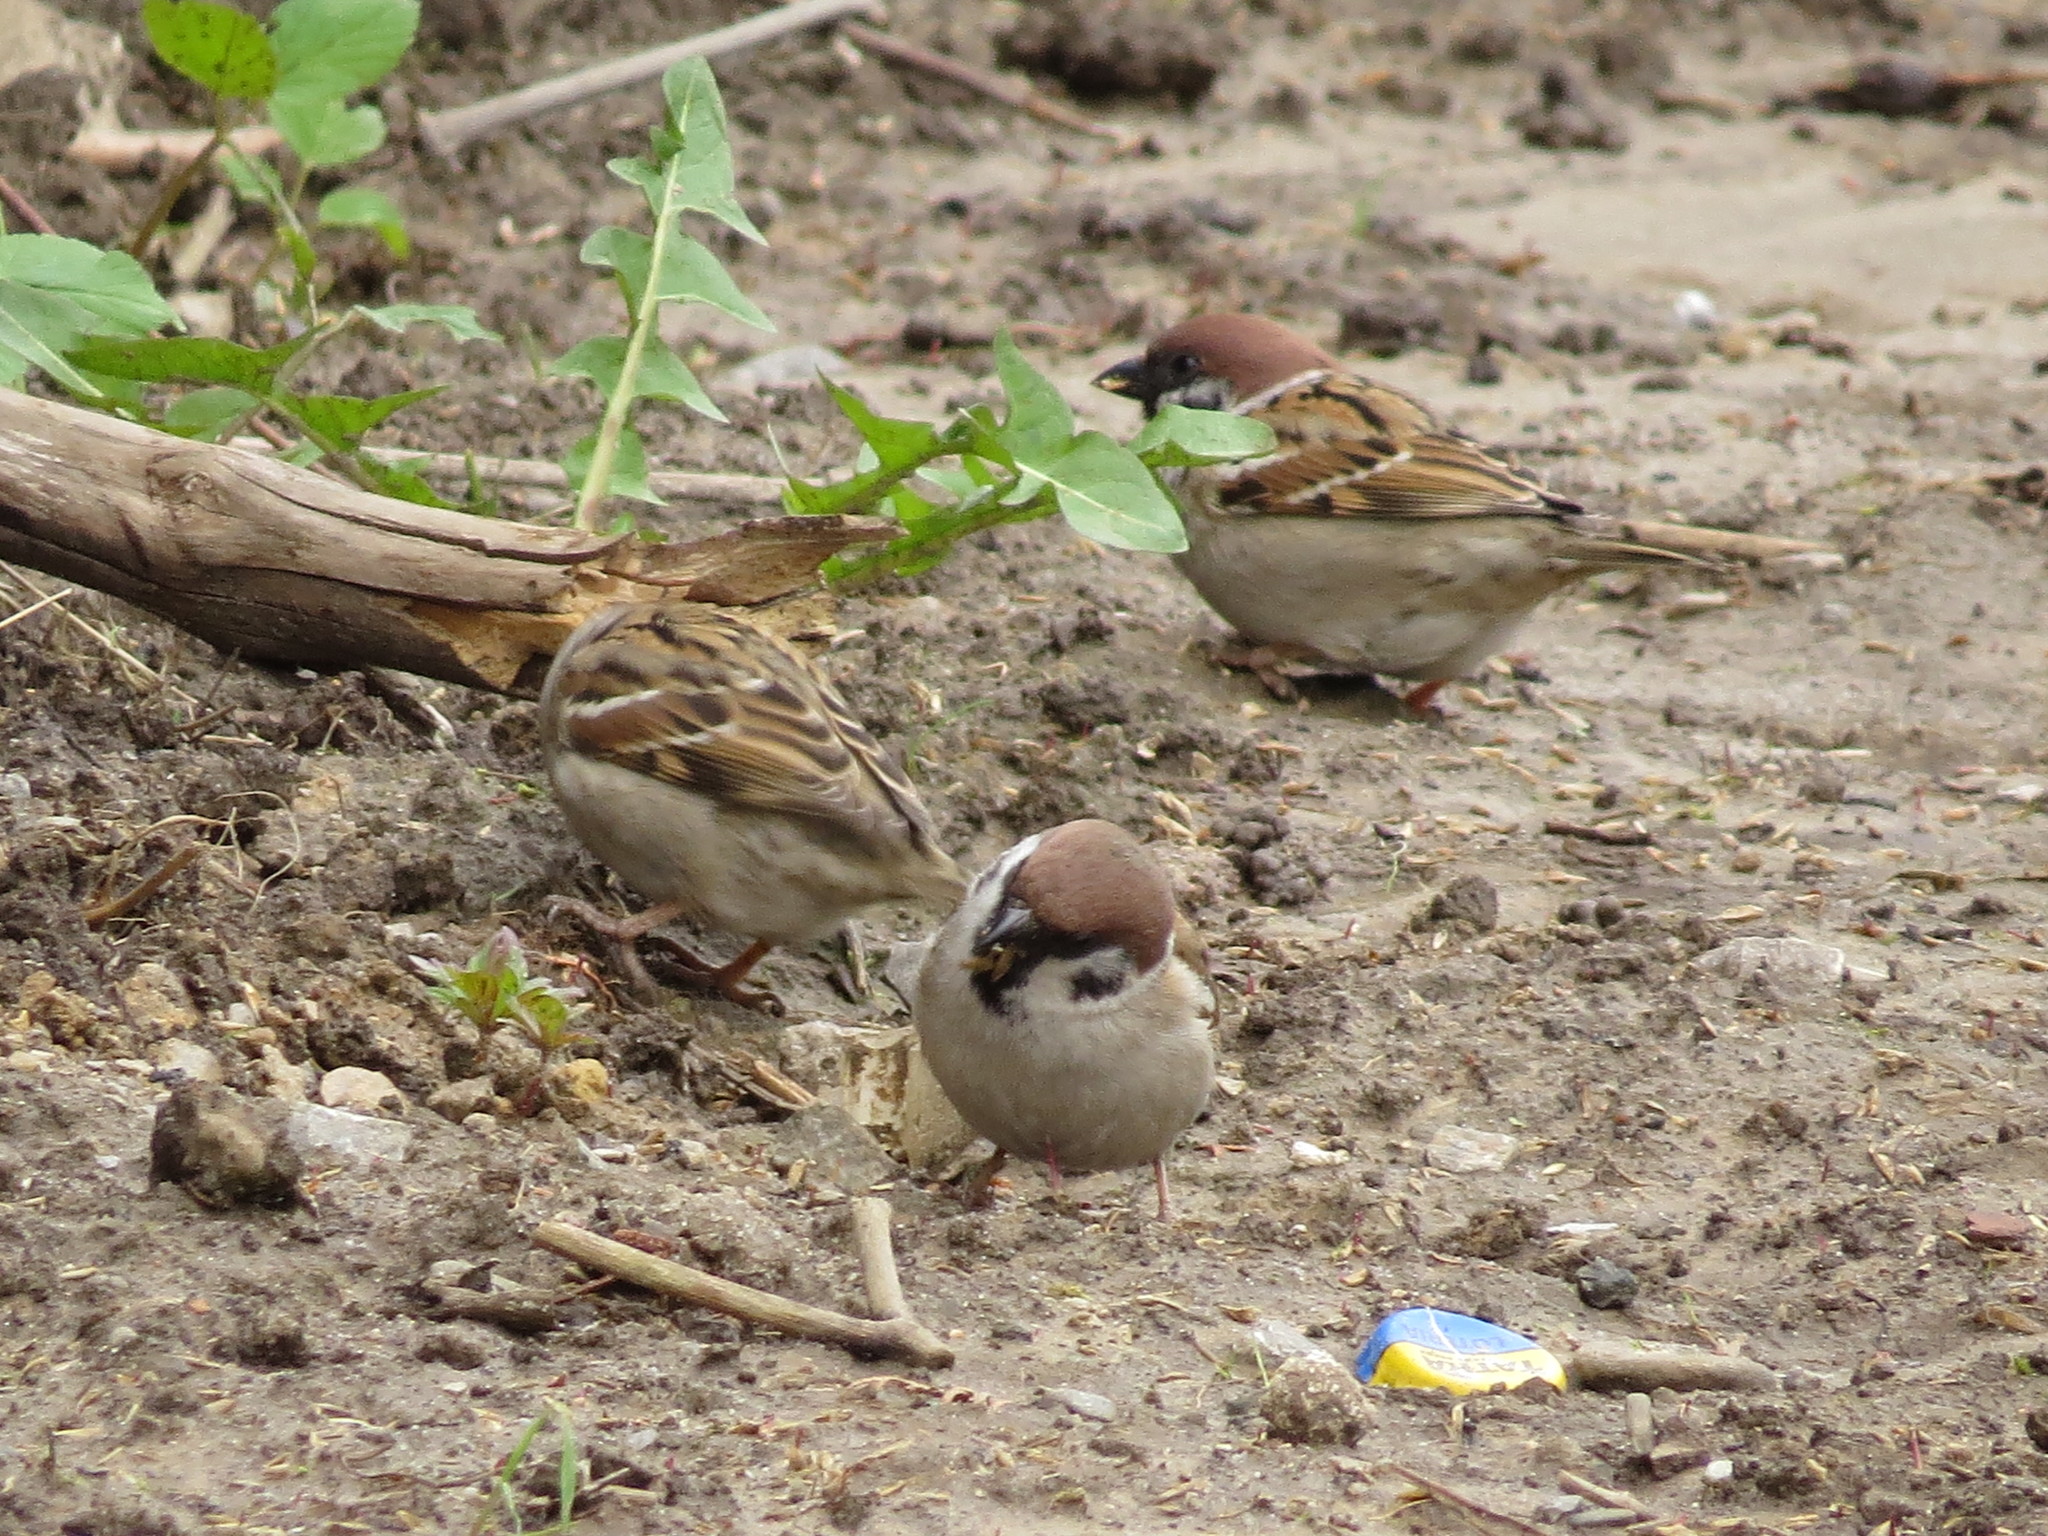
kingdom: Animalia
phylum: Chordata
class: Aves
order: Passeriformes
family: Passeridae
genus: Passer
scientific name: Passer montanus
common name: Eurasian tree sparrow
